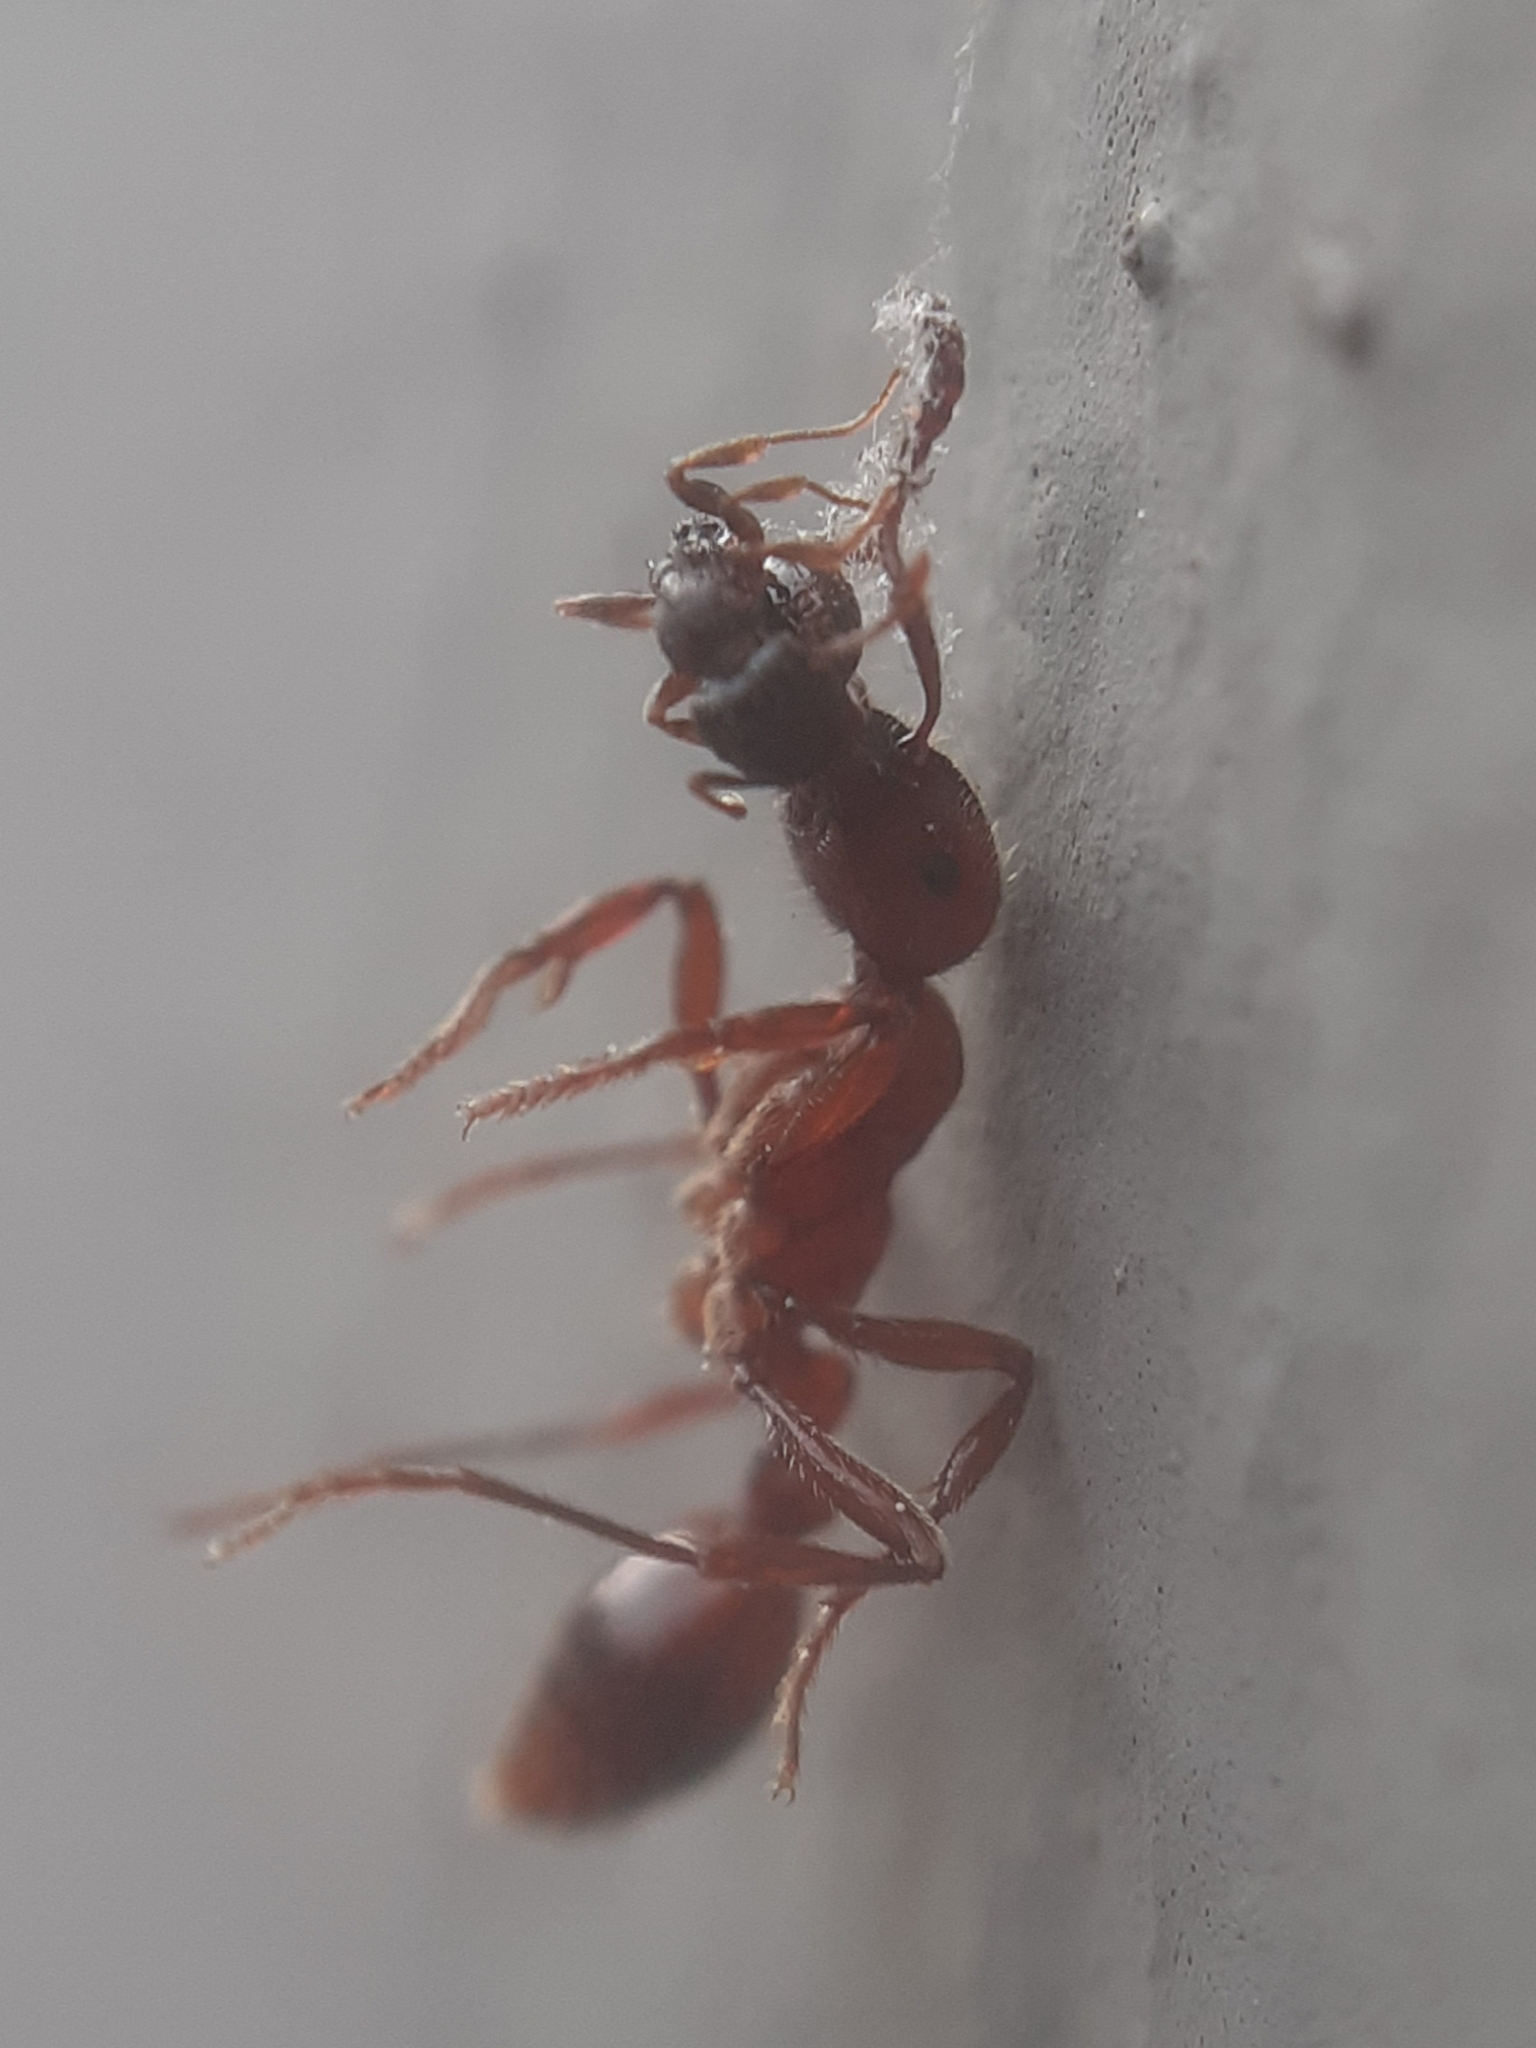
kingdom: Animalia
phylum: Arthropoda
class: Insecta
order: Hymenoptera
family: Formicidae
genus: Manica
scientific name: Manica rubida
